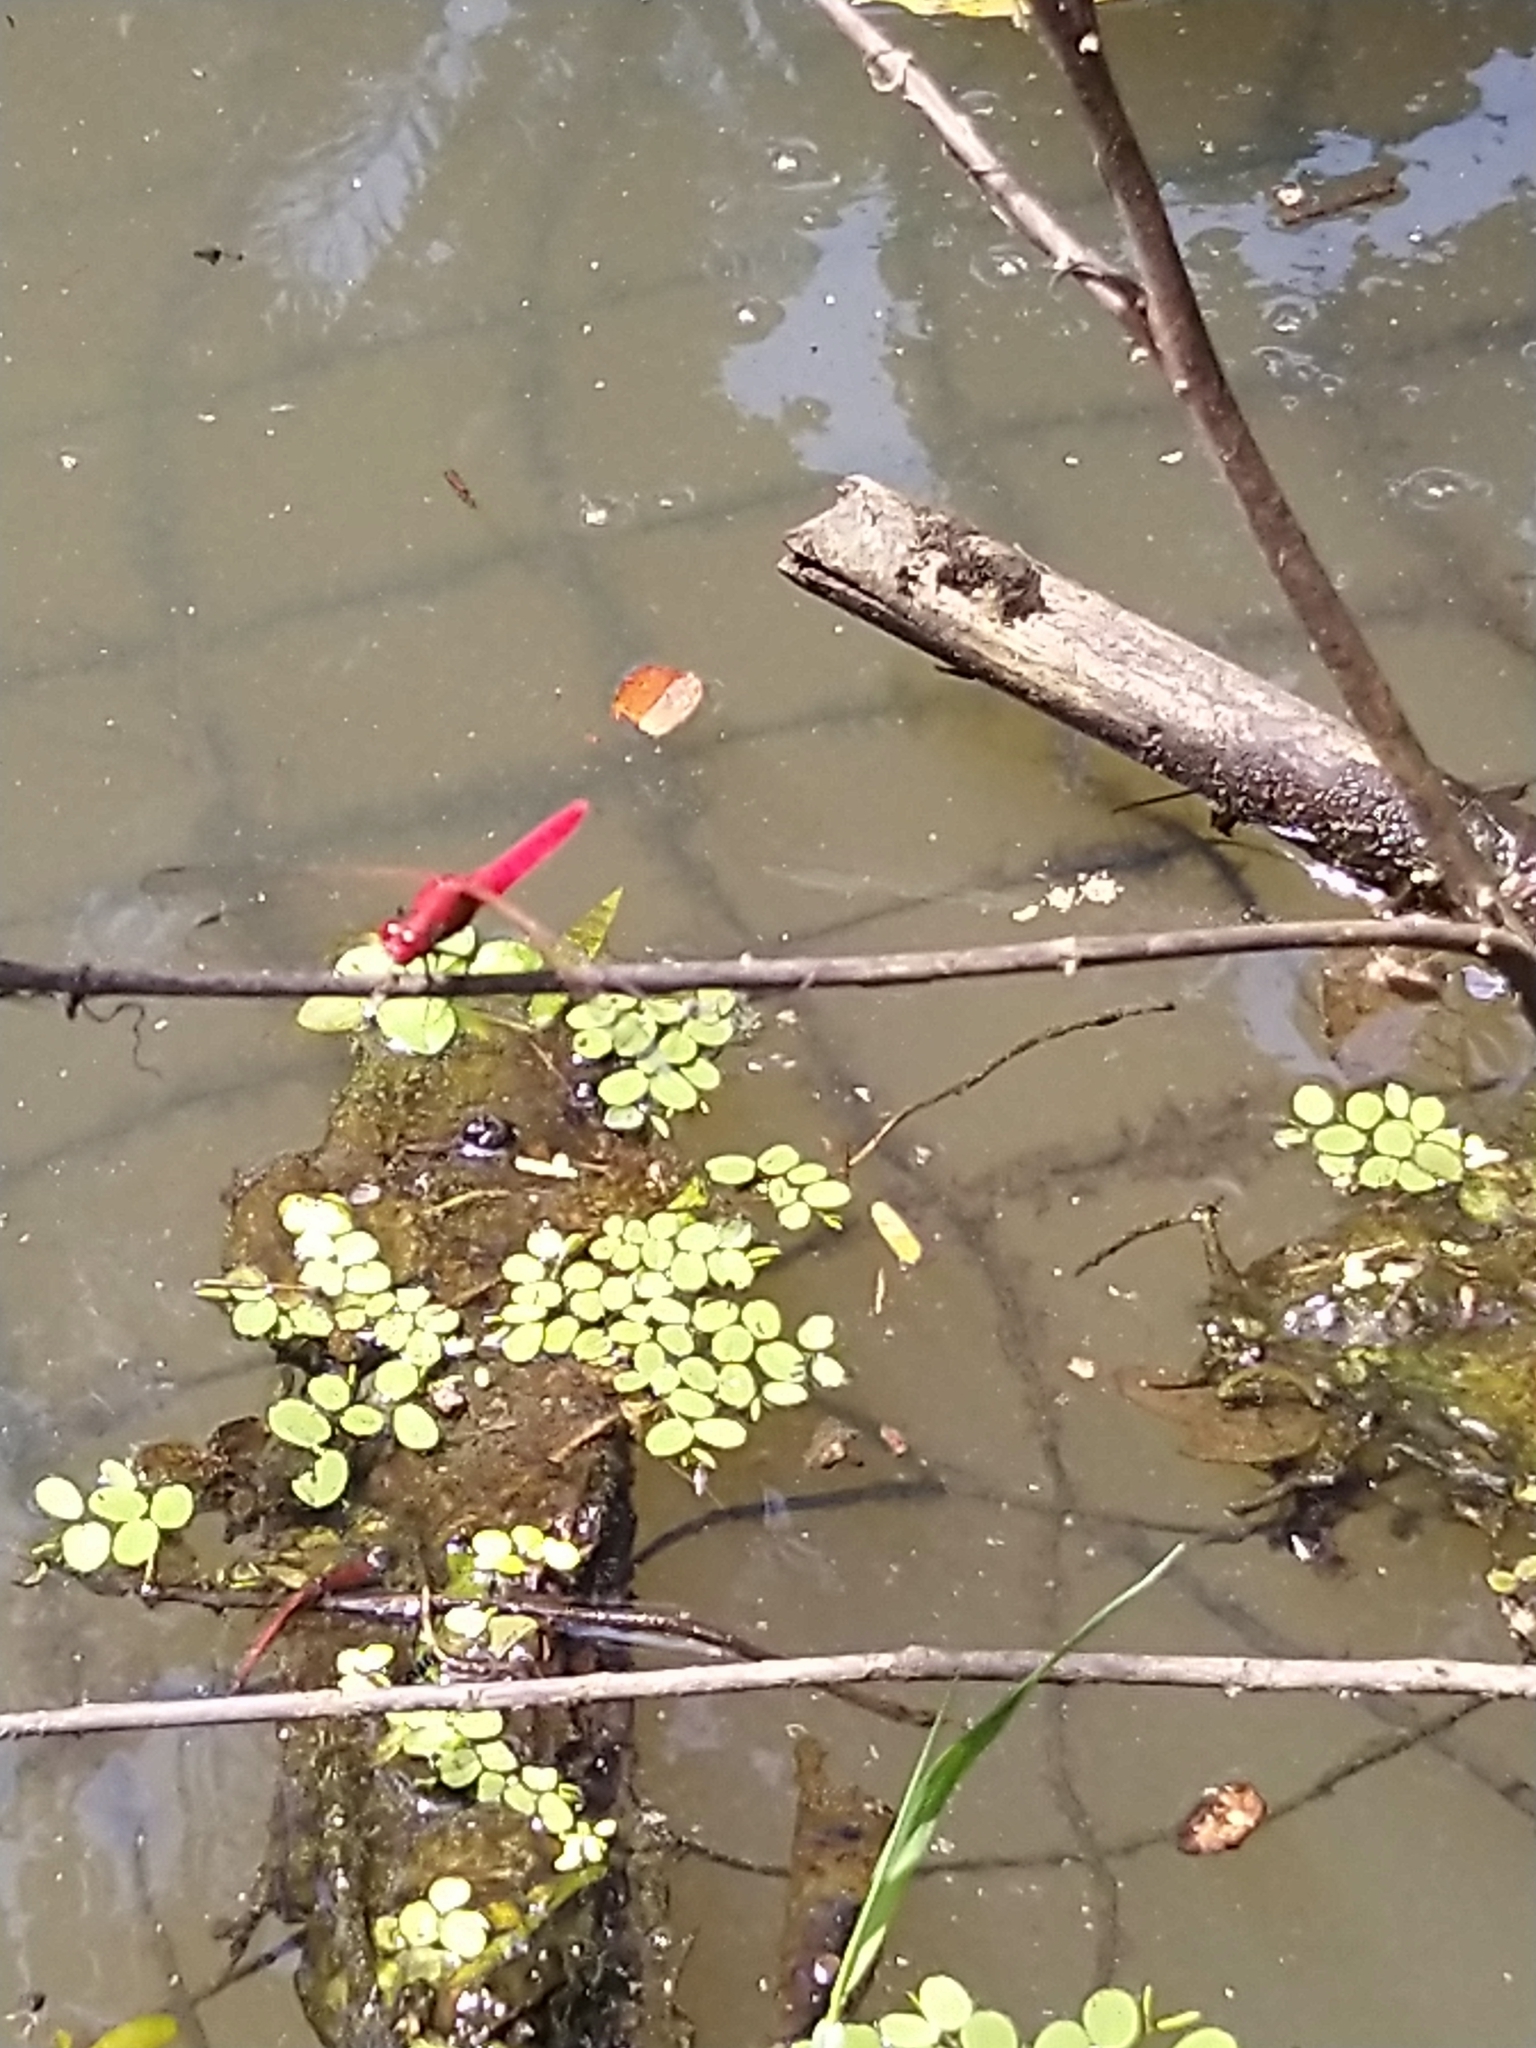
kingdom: Animalia
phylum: Arthropoda
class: Insecta
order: Odonata
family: Libellulidae
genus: Rhodothemis
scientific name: Rhodothemis rufa
